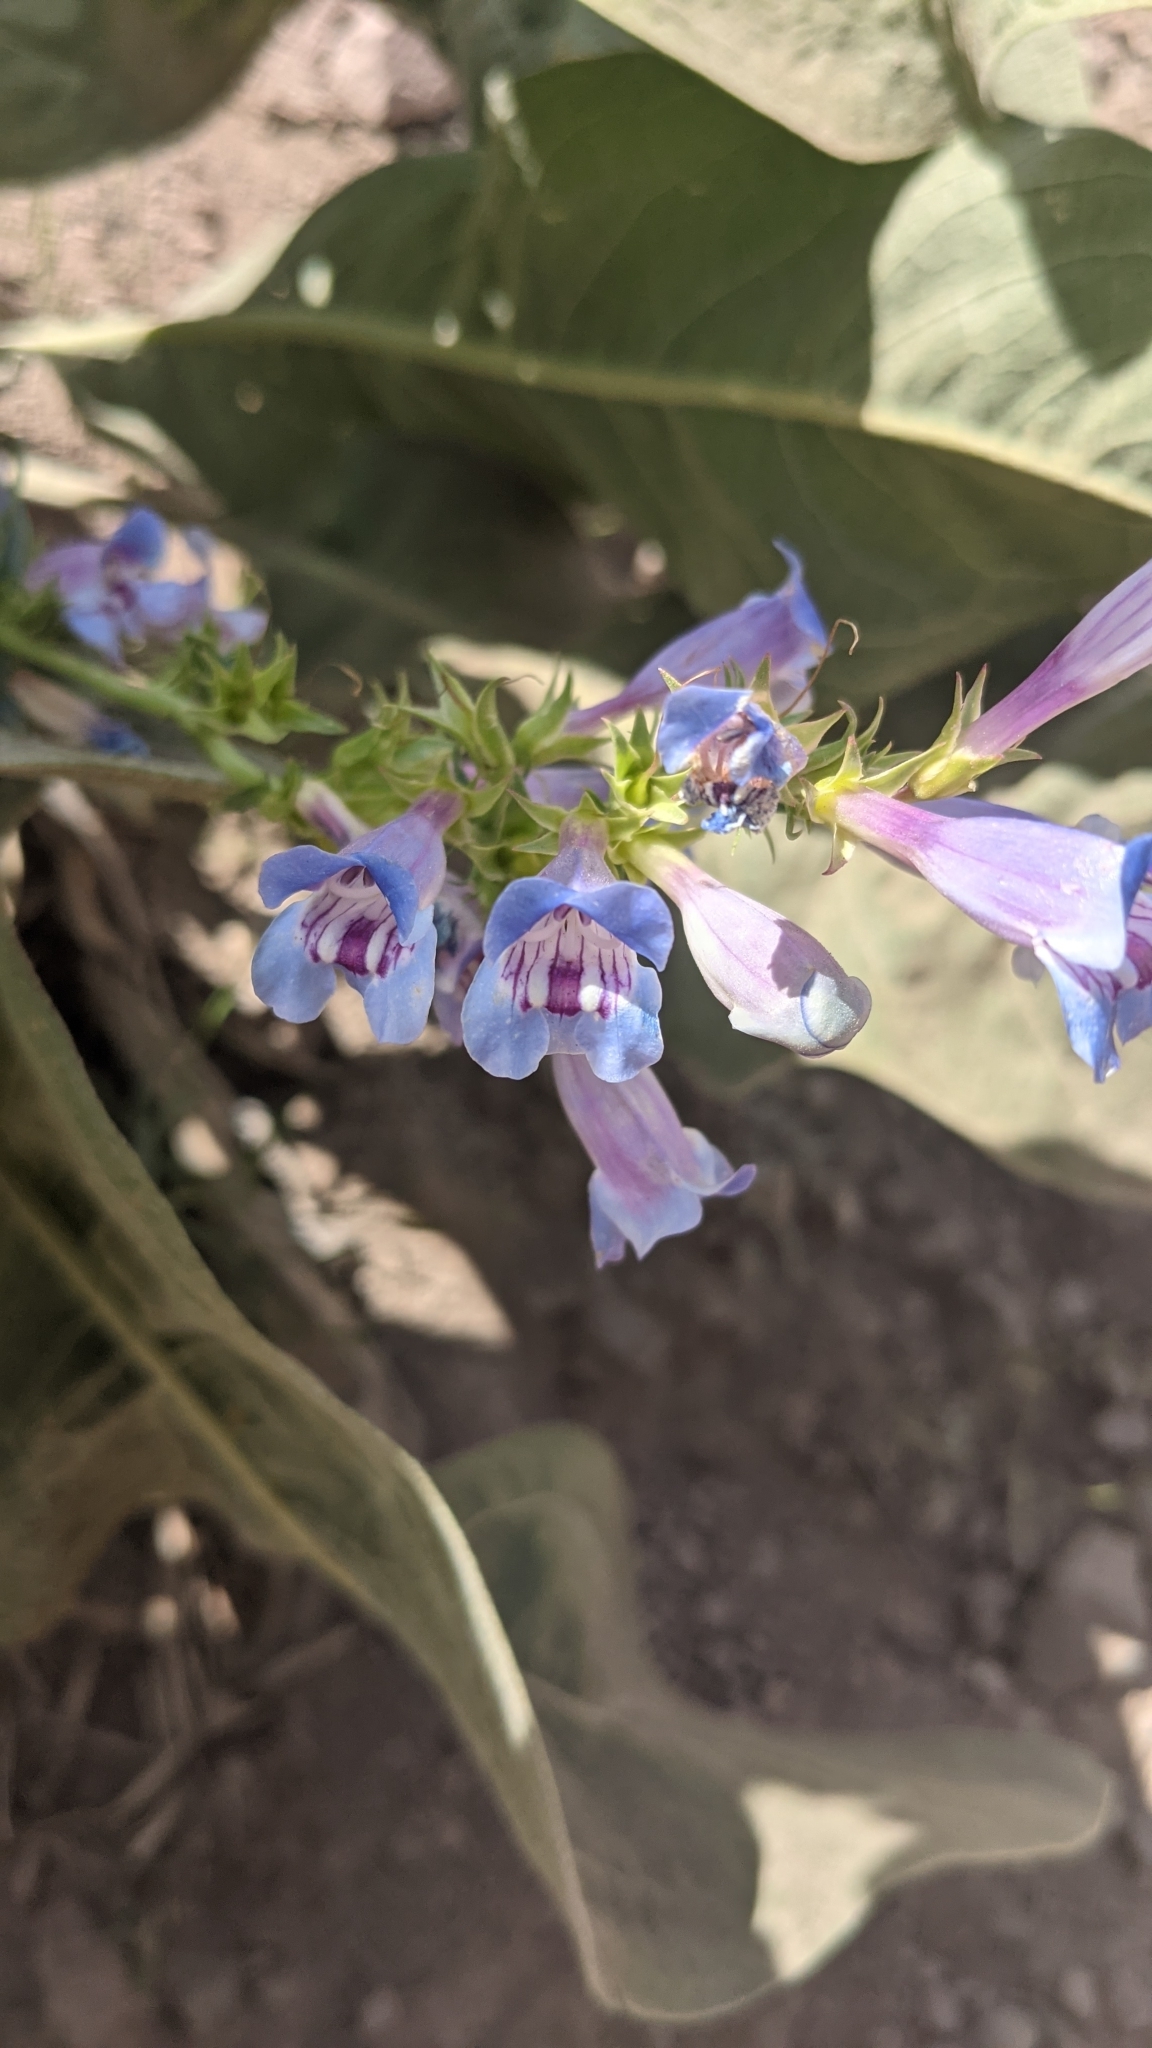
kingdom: Plantae
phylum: Tracheophyta
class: Magnoliopsida
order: Lamiales
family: Plantaginaceae
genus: Penstemon
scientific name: Penstemon speciosus
